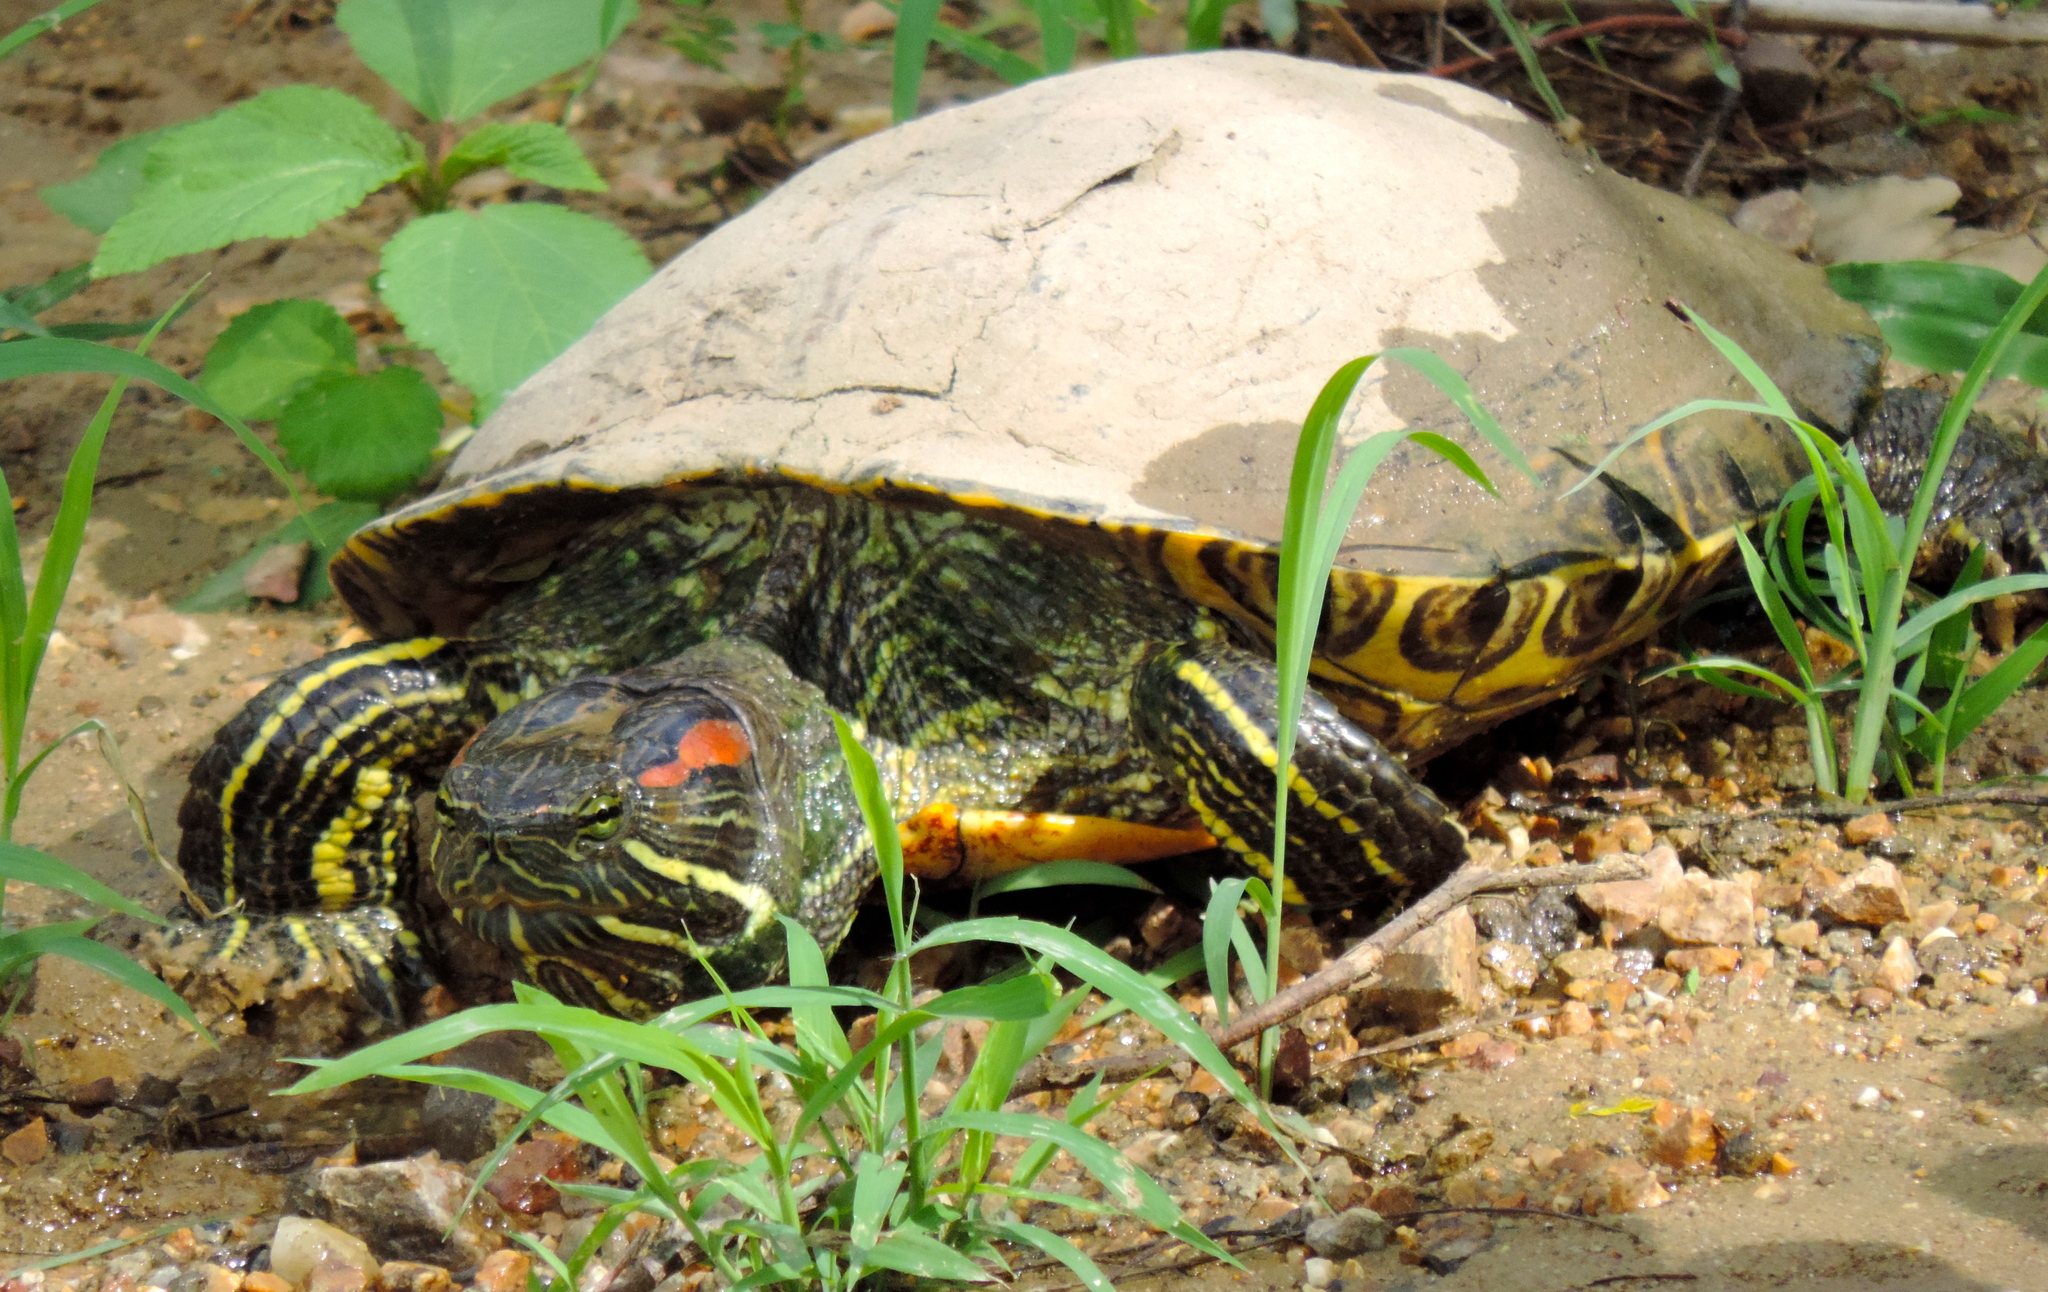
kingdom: Animalia
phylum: Chordata
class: Testudines
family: Emydidae
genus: Trachemys
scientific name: Trachemys scripta
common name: Slider
